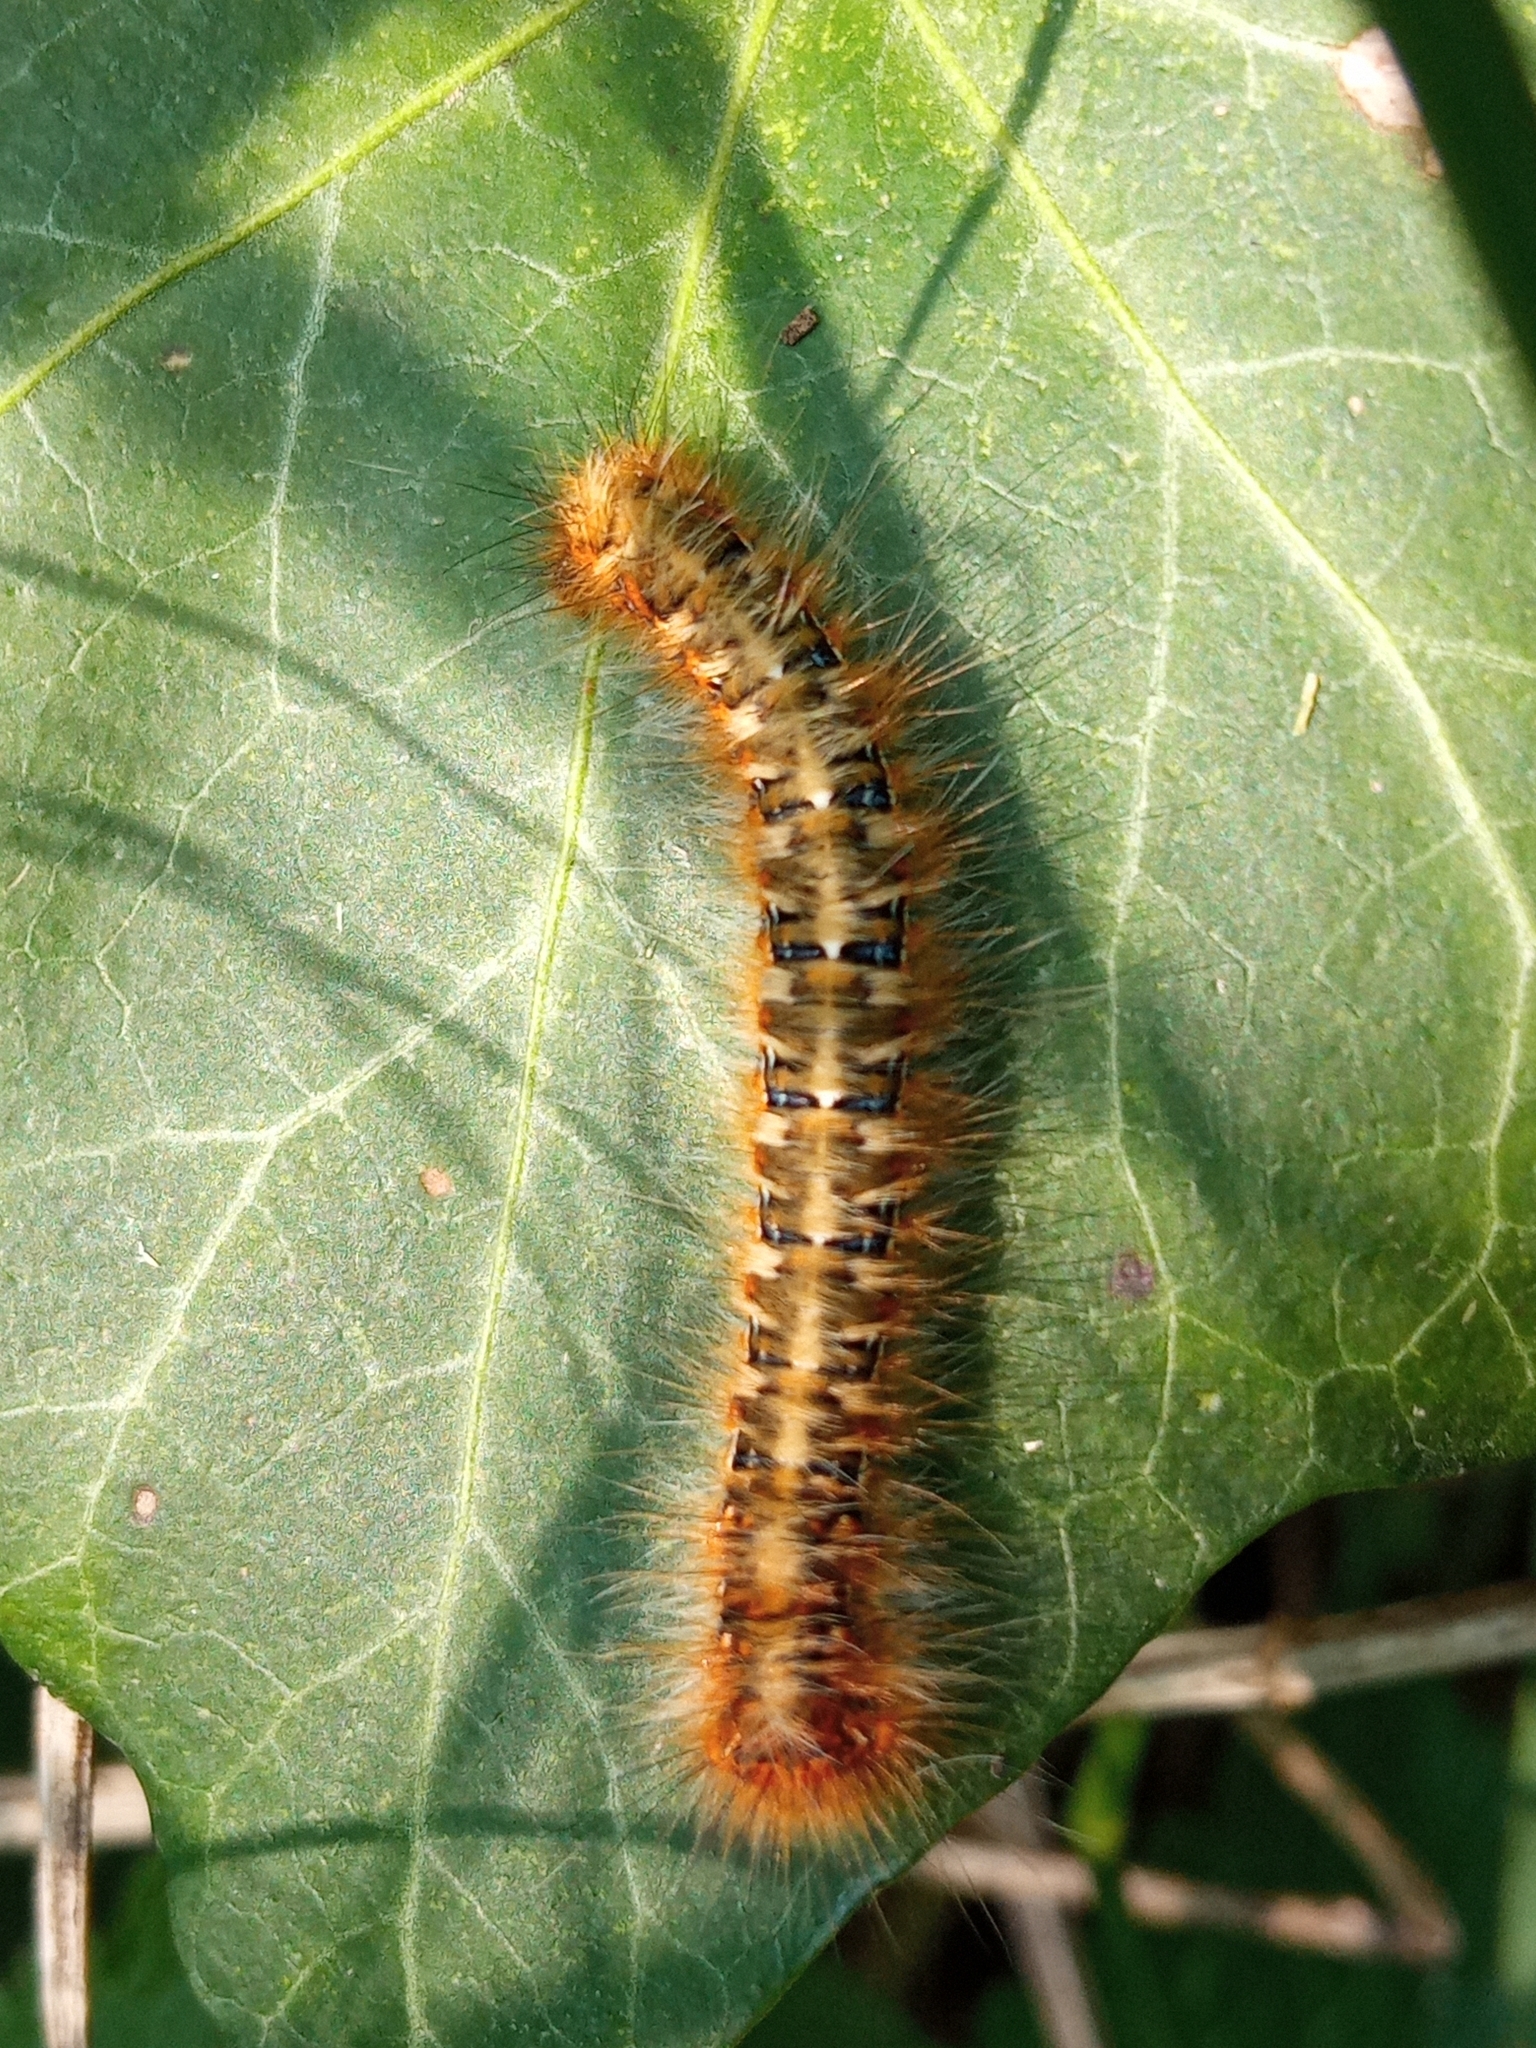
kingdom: Animalia
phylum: Arthropoda
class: Insecta
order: Lepidoptera
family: Lasiocampidae
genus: Lasiocampa
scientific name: Lasiocampa quercus
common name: Oak eggar
